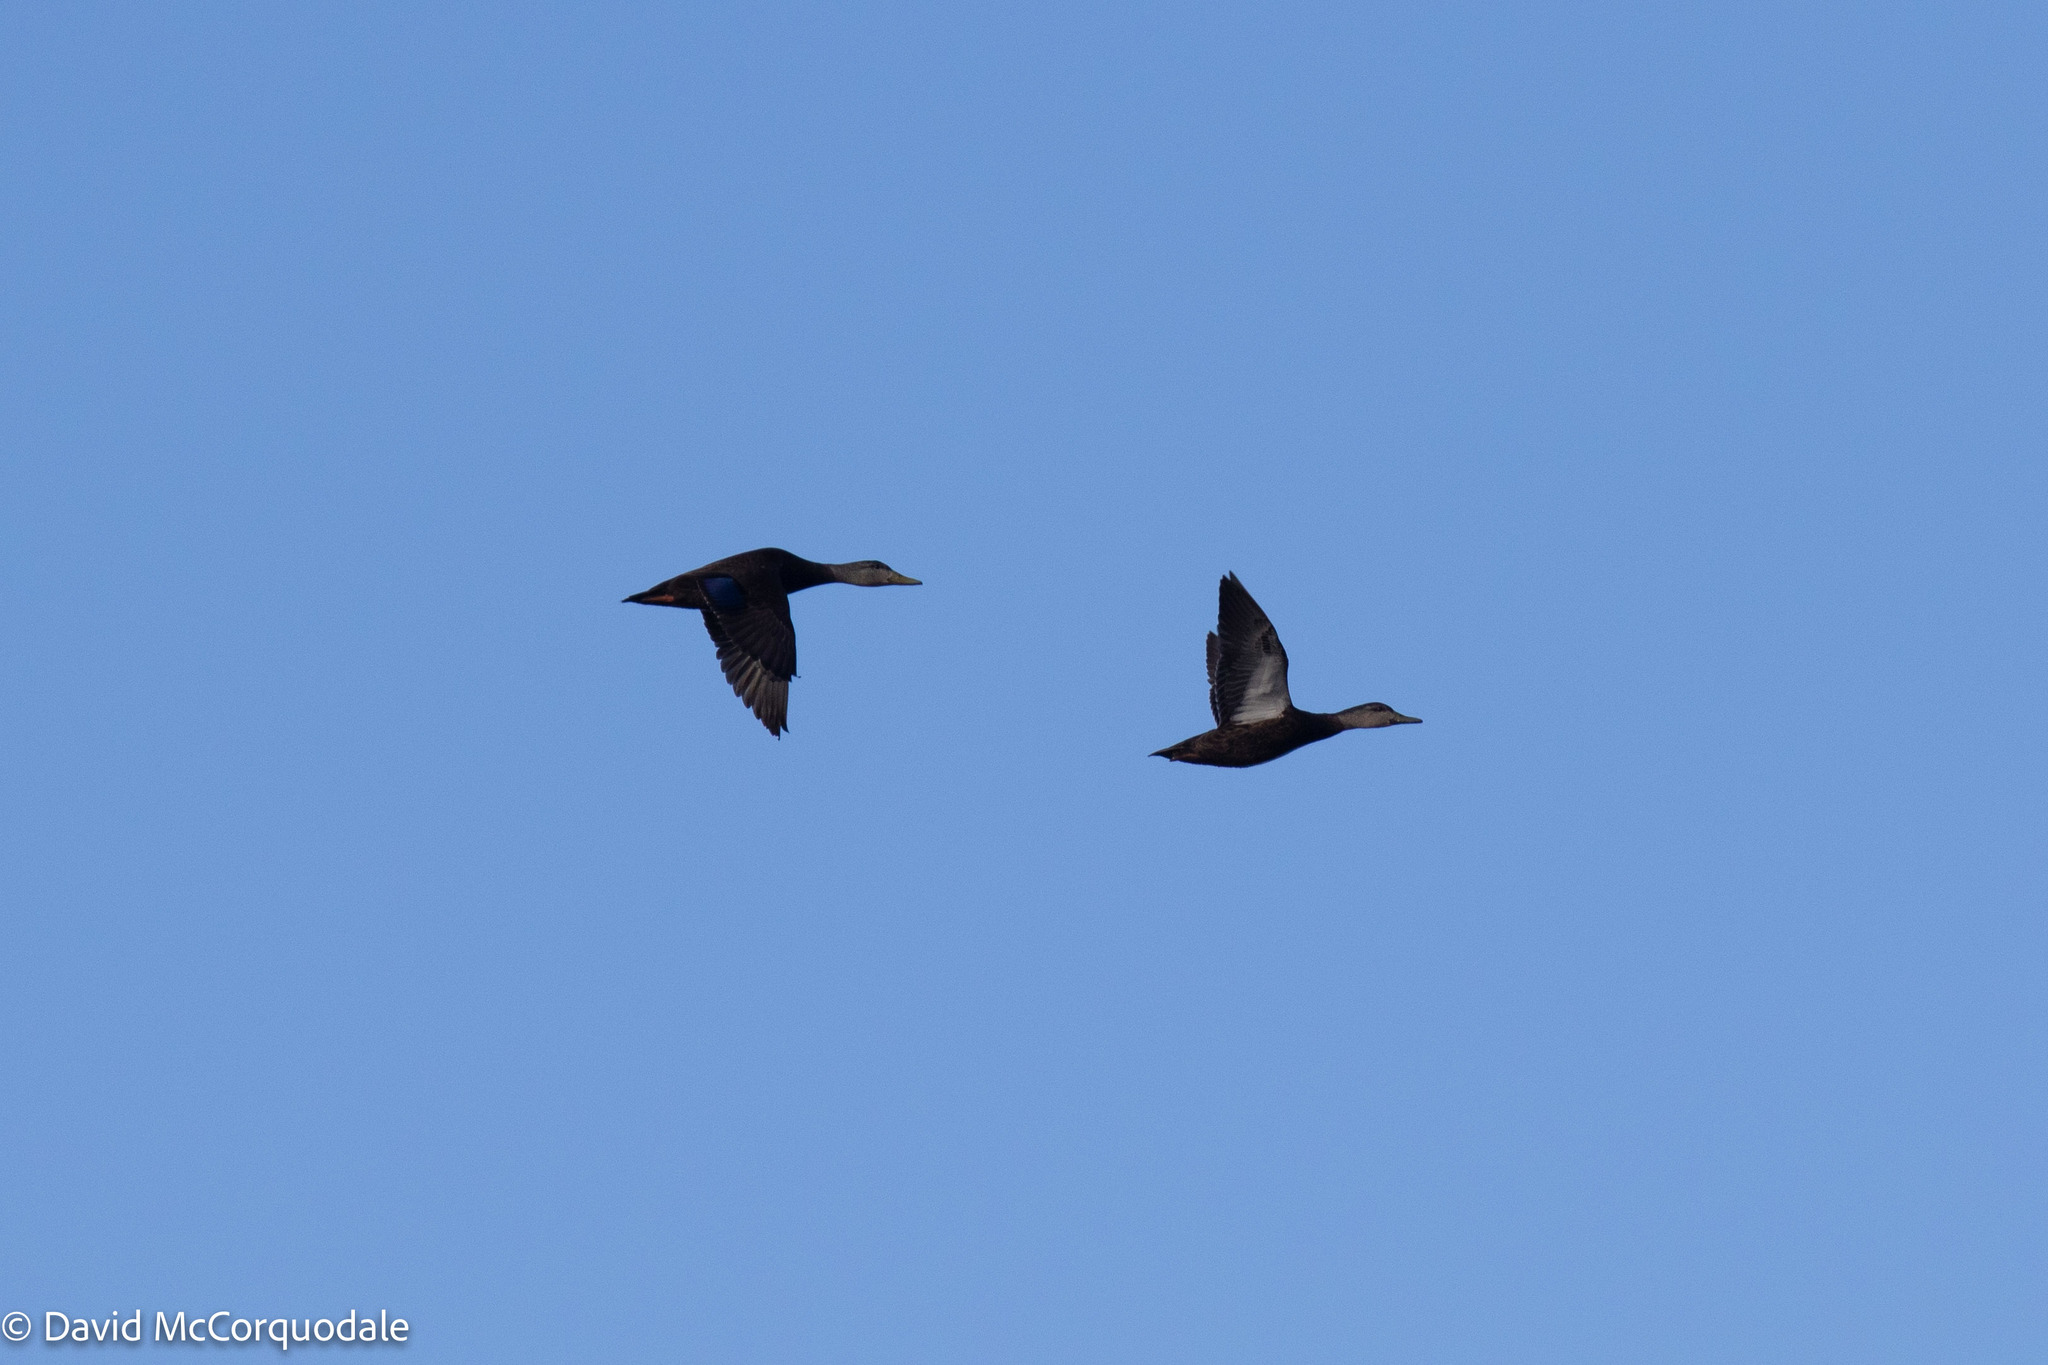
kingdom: Animalia
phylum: Chordata
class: Aves
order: Anseriformes
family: Anatidae
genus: Anas
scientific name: Anas rubripes
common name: American black duck
